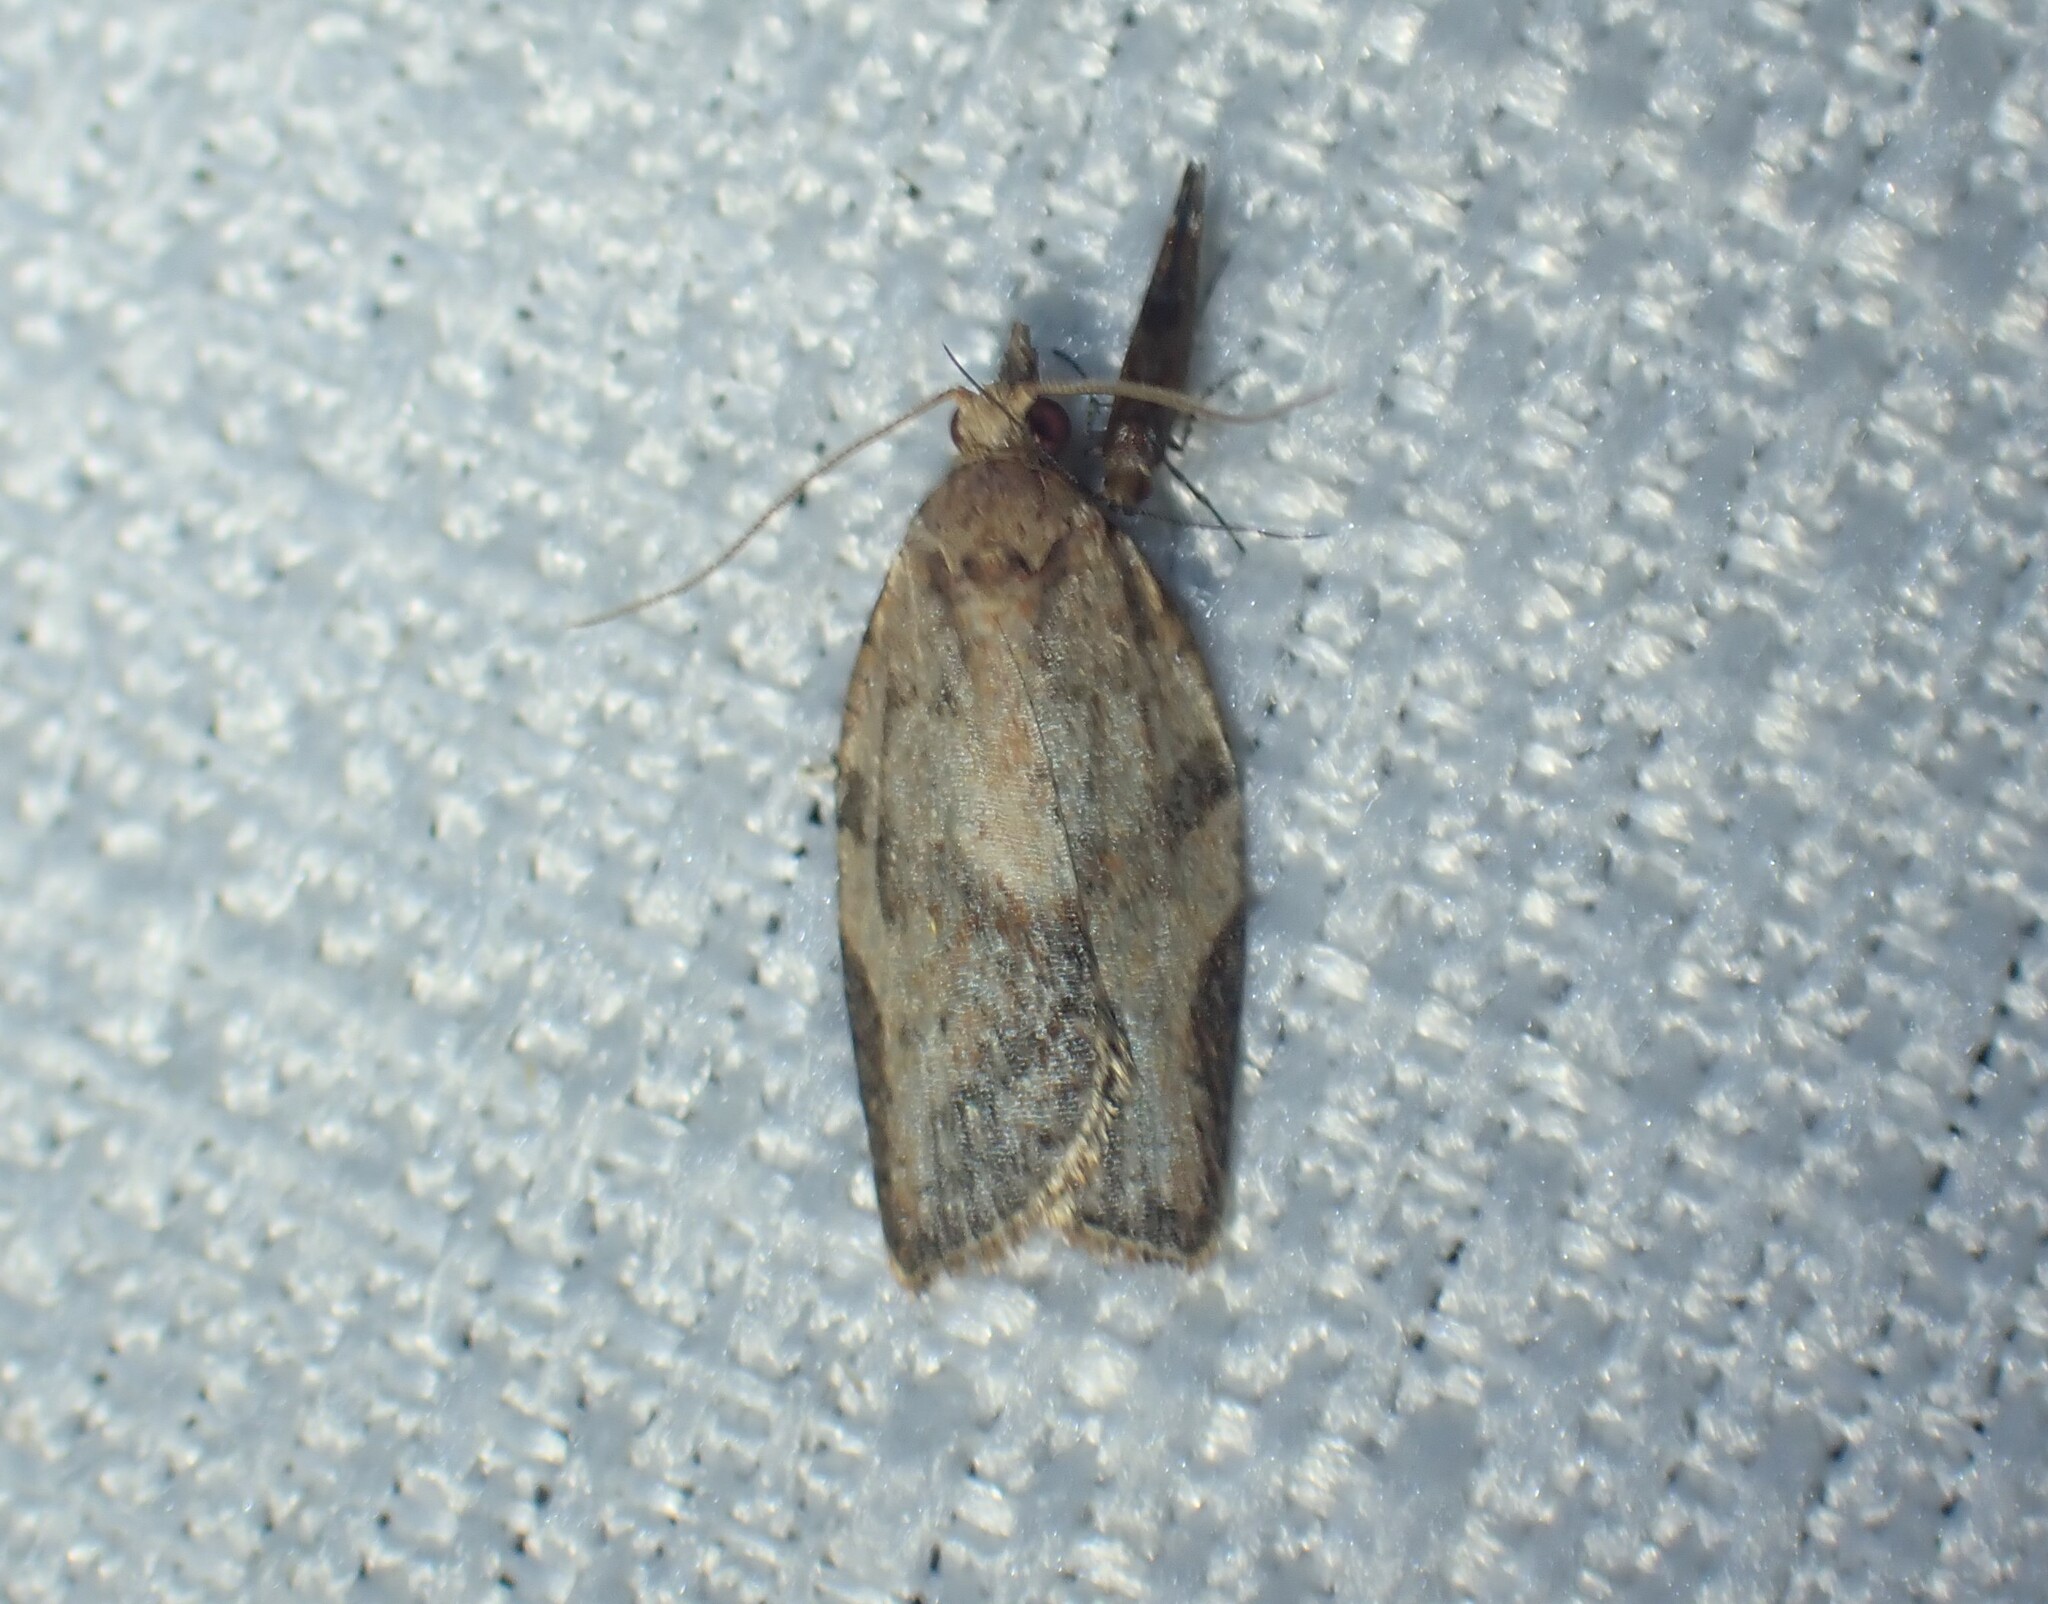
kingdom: Animalia
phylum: Arthropoda
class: Insecta
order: Lepidoptera
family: Tortricidae
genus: Epiphyas
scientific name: Epiphyas postvittana
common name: Light brown apple moth
